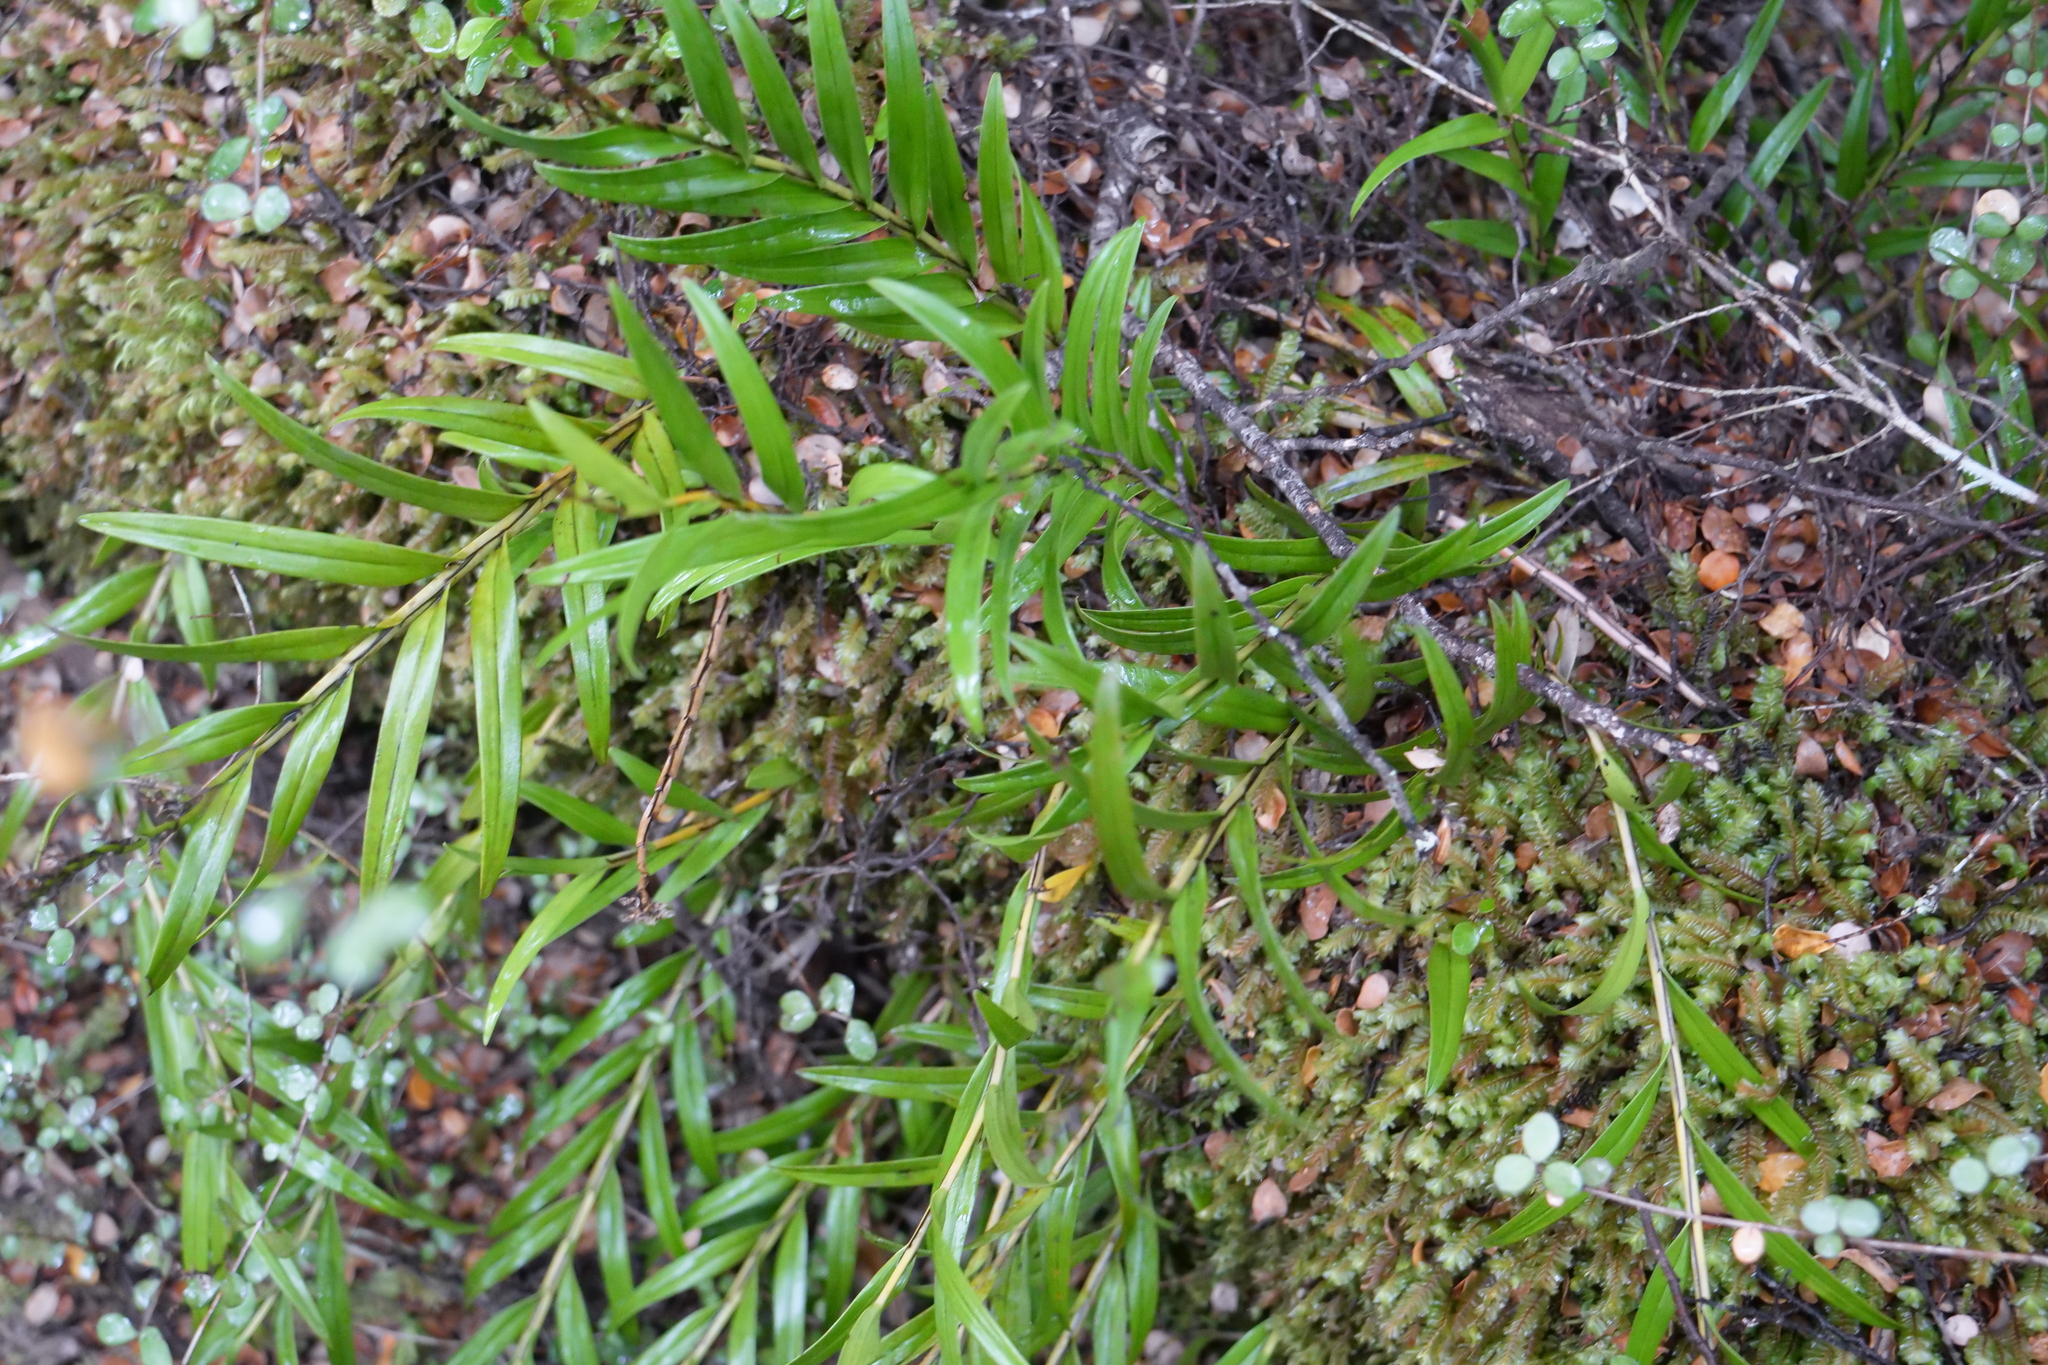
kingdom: Plantae
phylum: Tracheophyta
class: Liliopsida
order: Asparagales
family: Orchidaceae
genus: Earina
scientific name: Earina autumnalis
